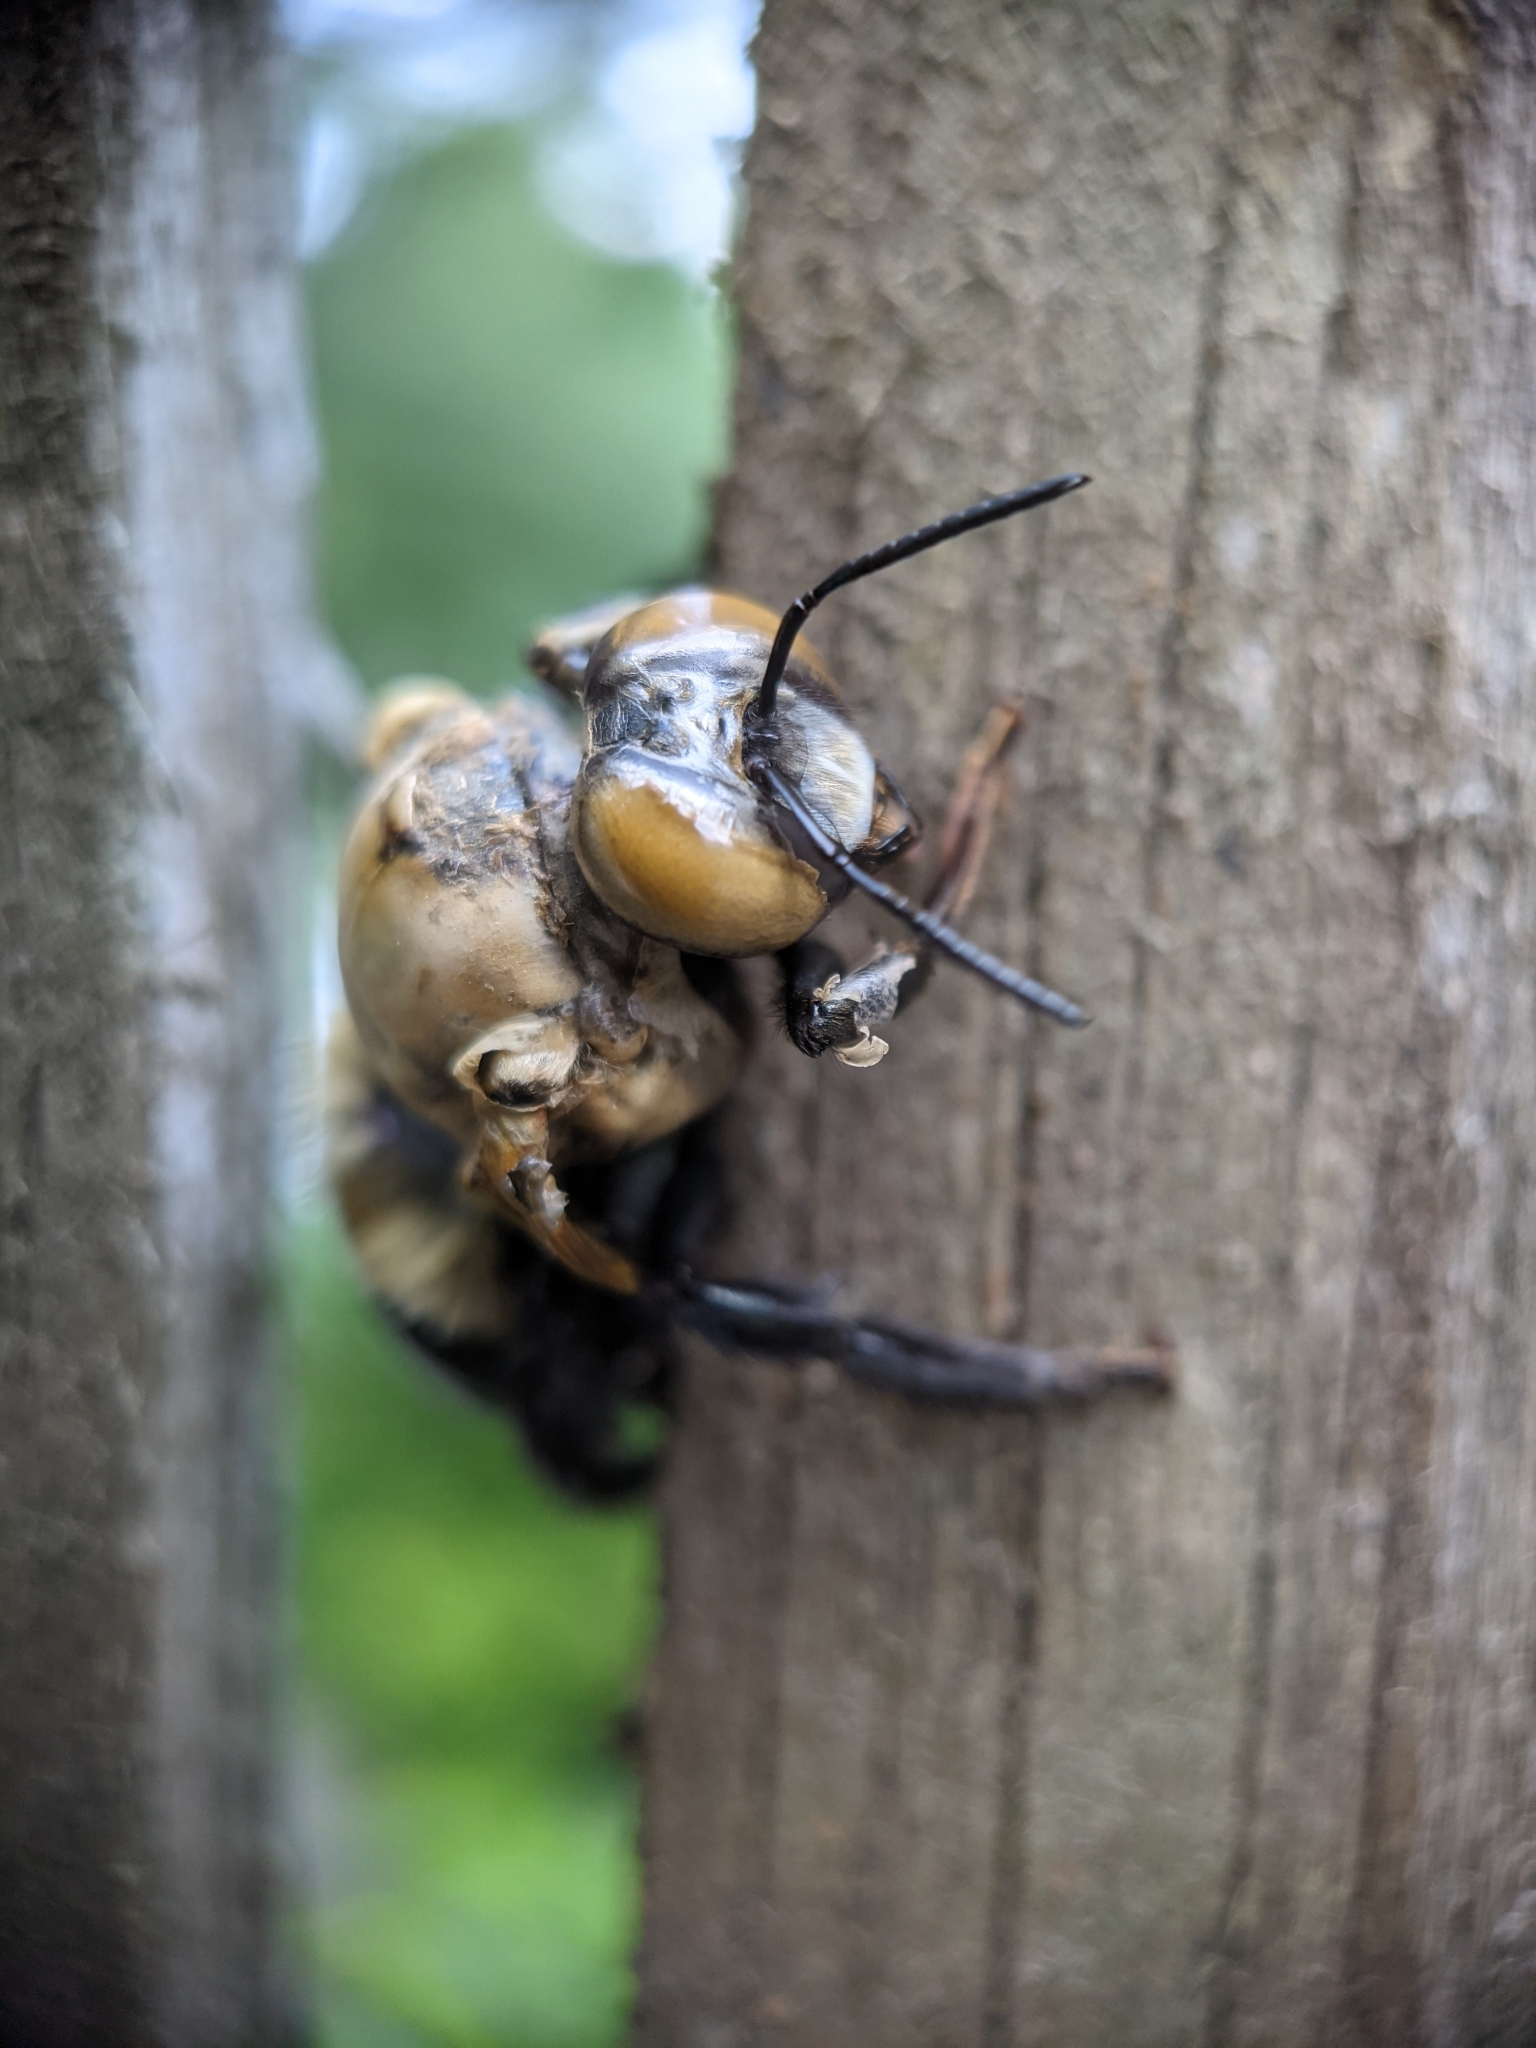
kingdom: Animalia
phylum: Arthropoda
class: Insecta
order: Hymenoptera
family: Apidae
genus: Xylocopa
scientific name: Xylocopa virginica
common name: Carpenter bee
